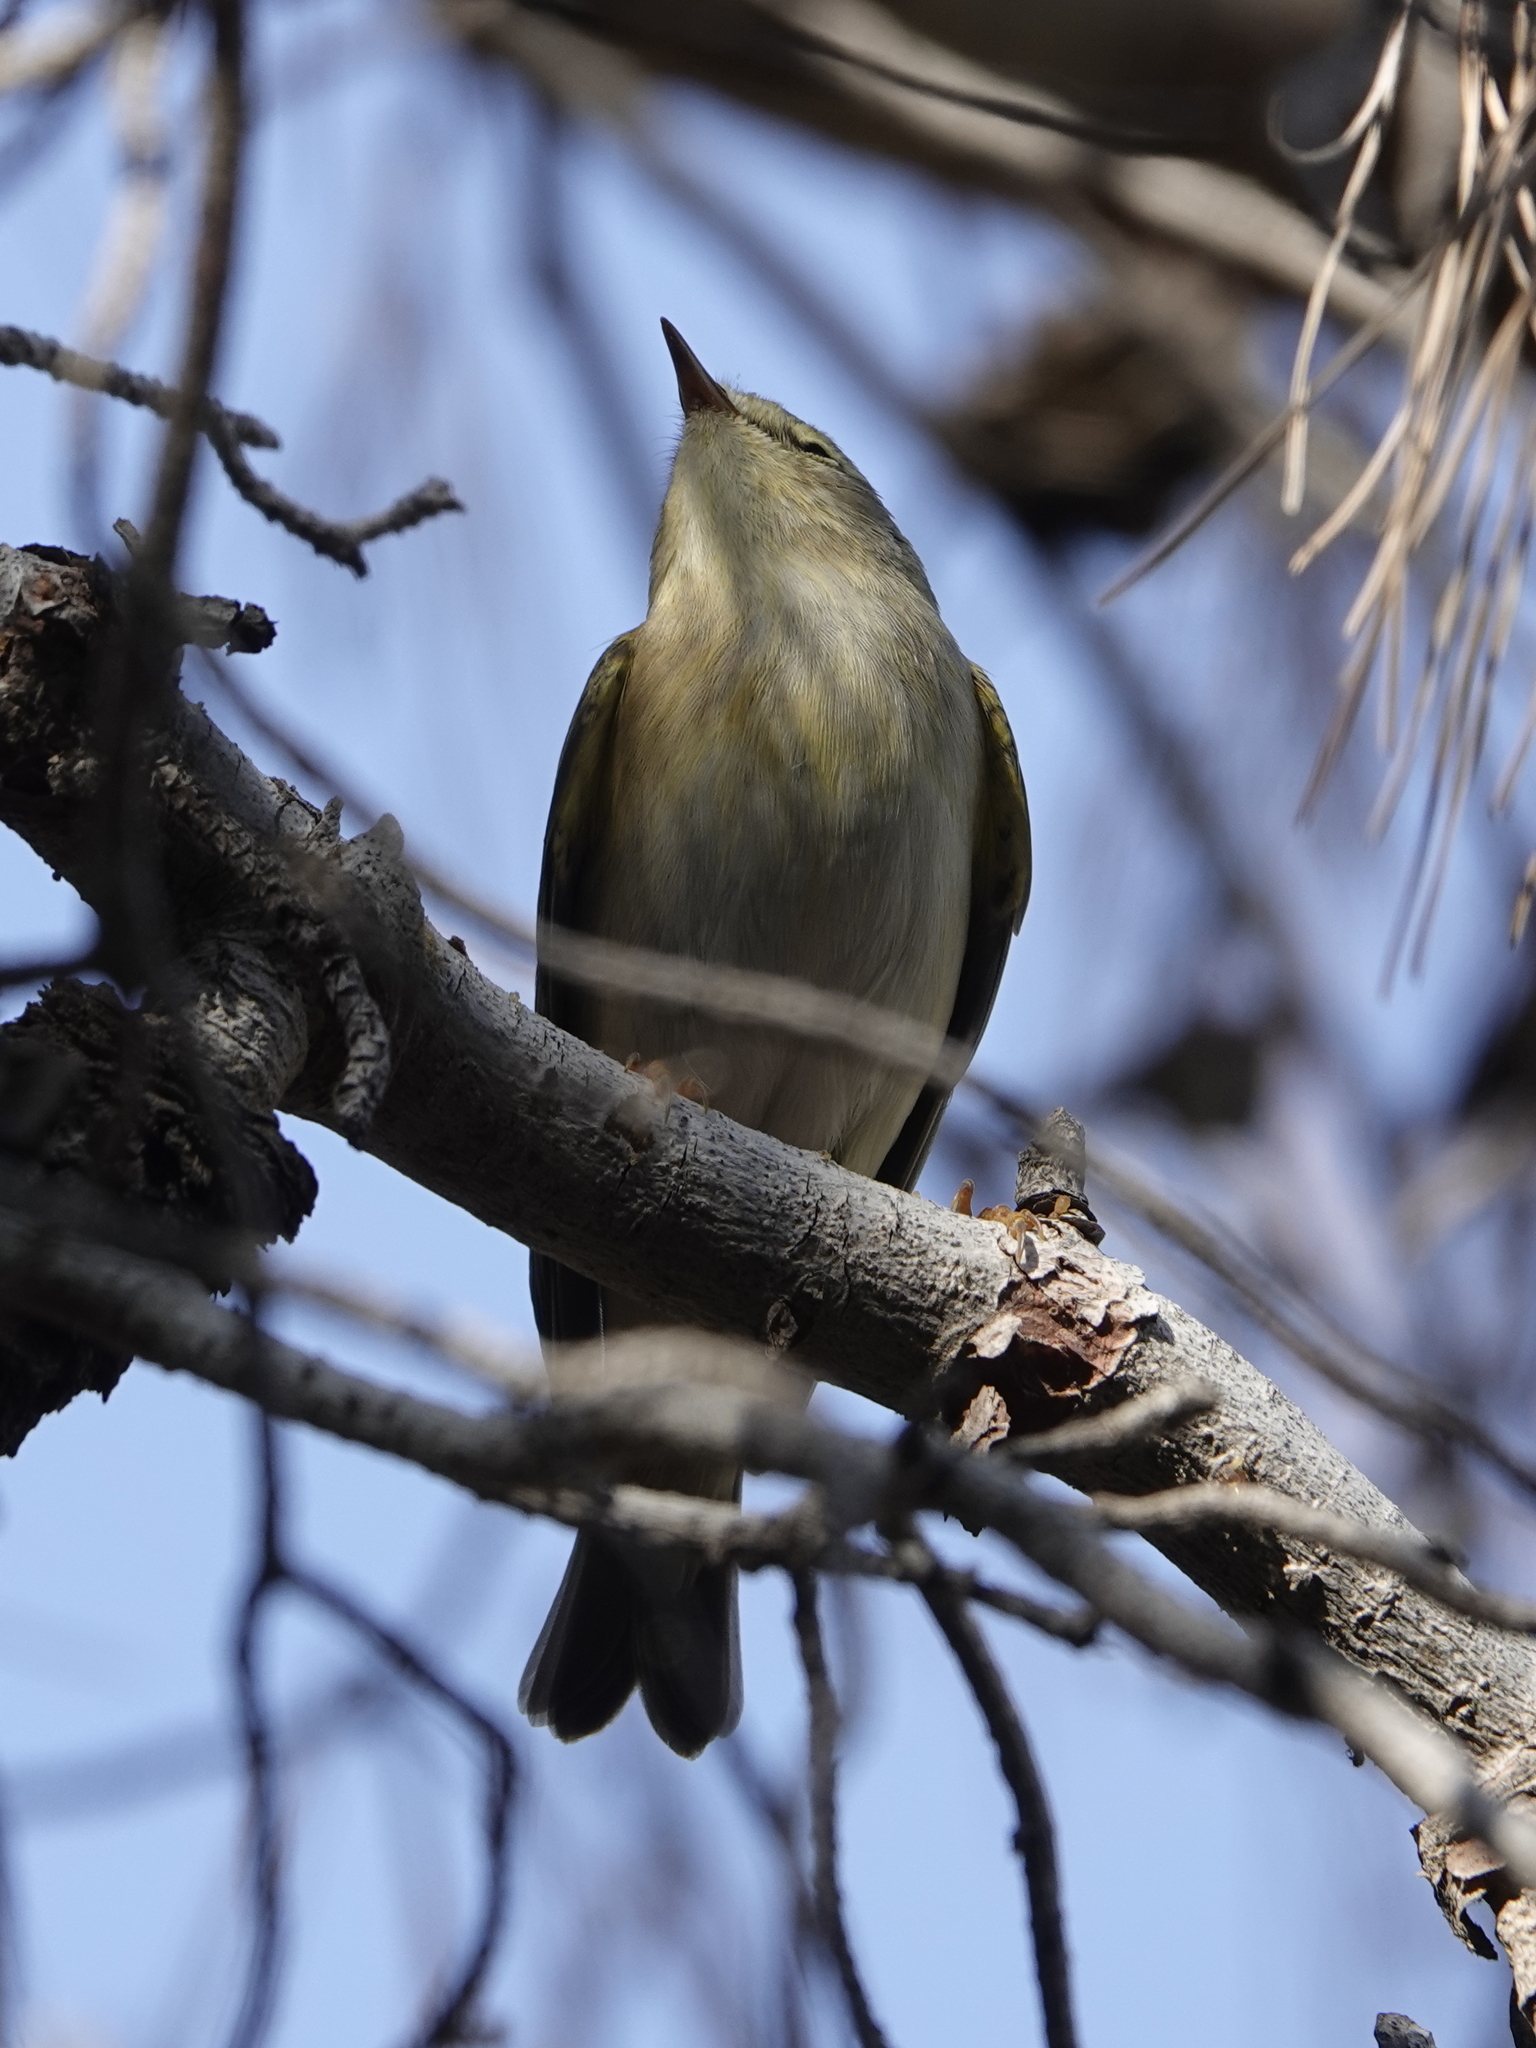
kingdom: Animalia
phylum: Chordata
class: Aves
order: Passeriformes
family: Phylloscopidae
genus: Phylloscopus
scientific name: Phylloscopus trochilus
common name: Willow warbler
